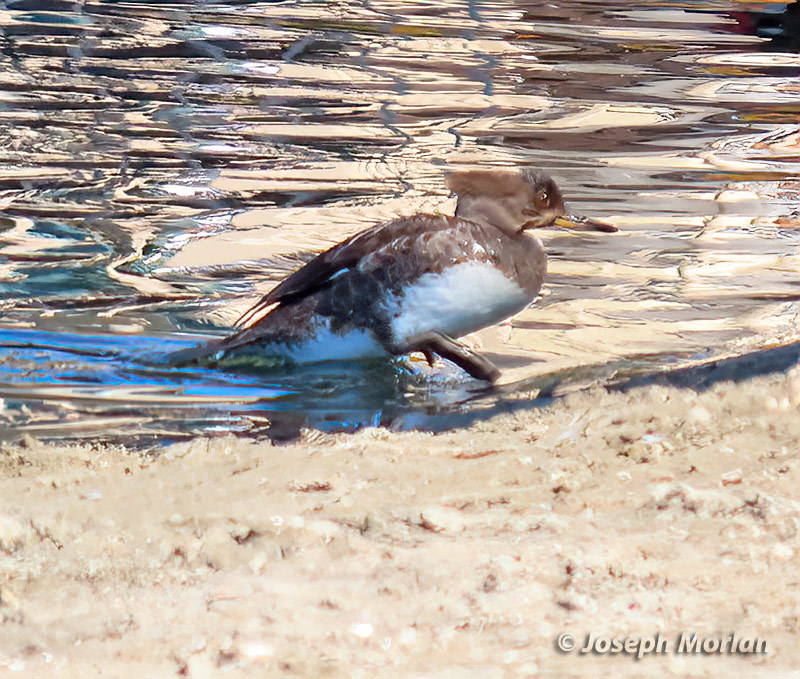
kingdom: Animalia
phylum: Chordata
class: Aves
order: Anseriformes
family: Anatidae
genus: Lophodytes
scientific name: Lophodytes cucullatus
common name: Hooded merganser
